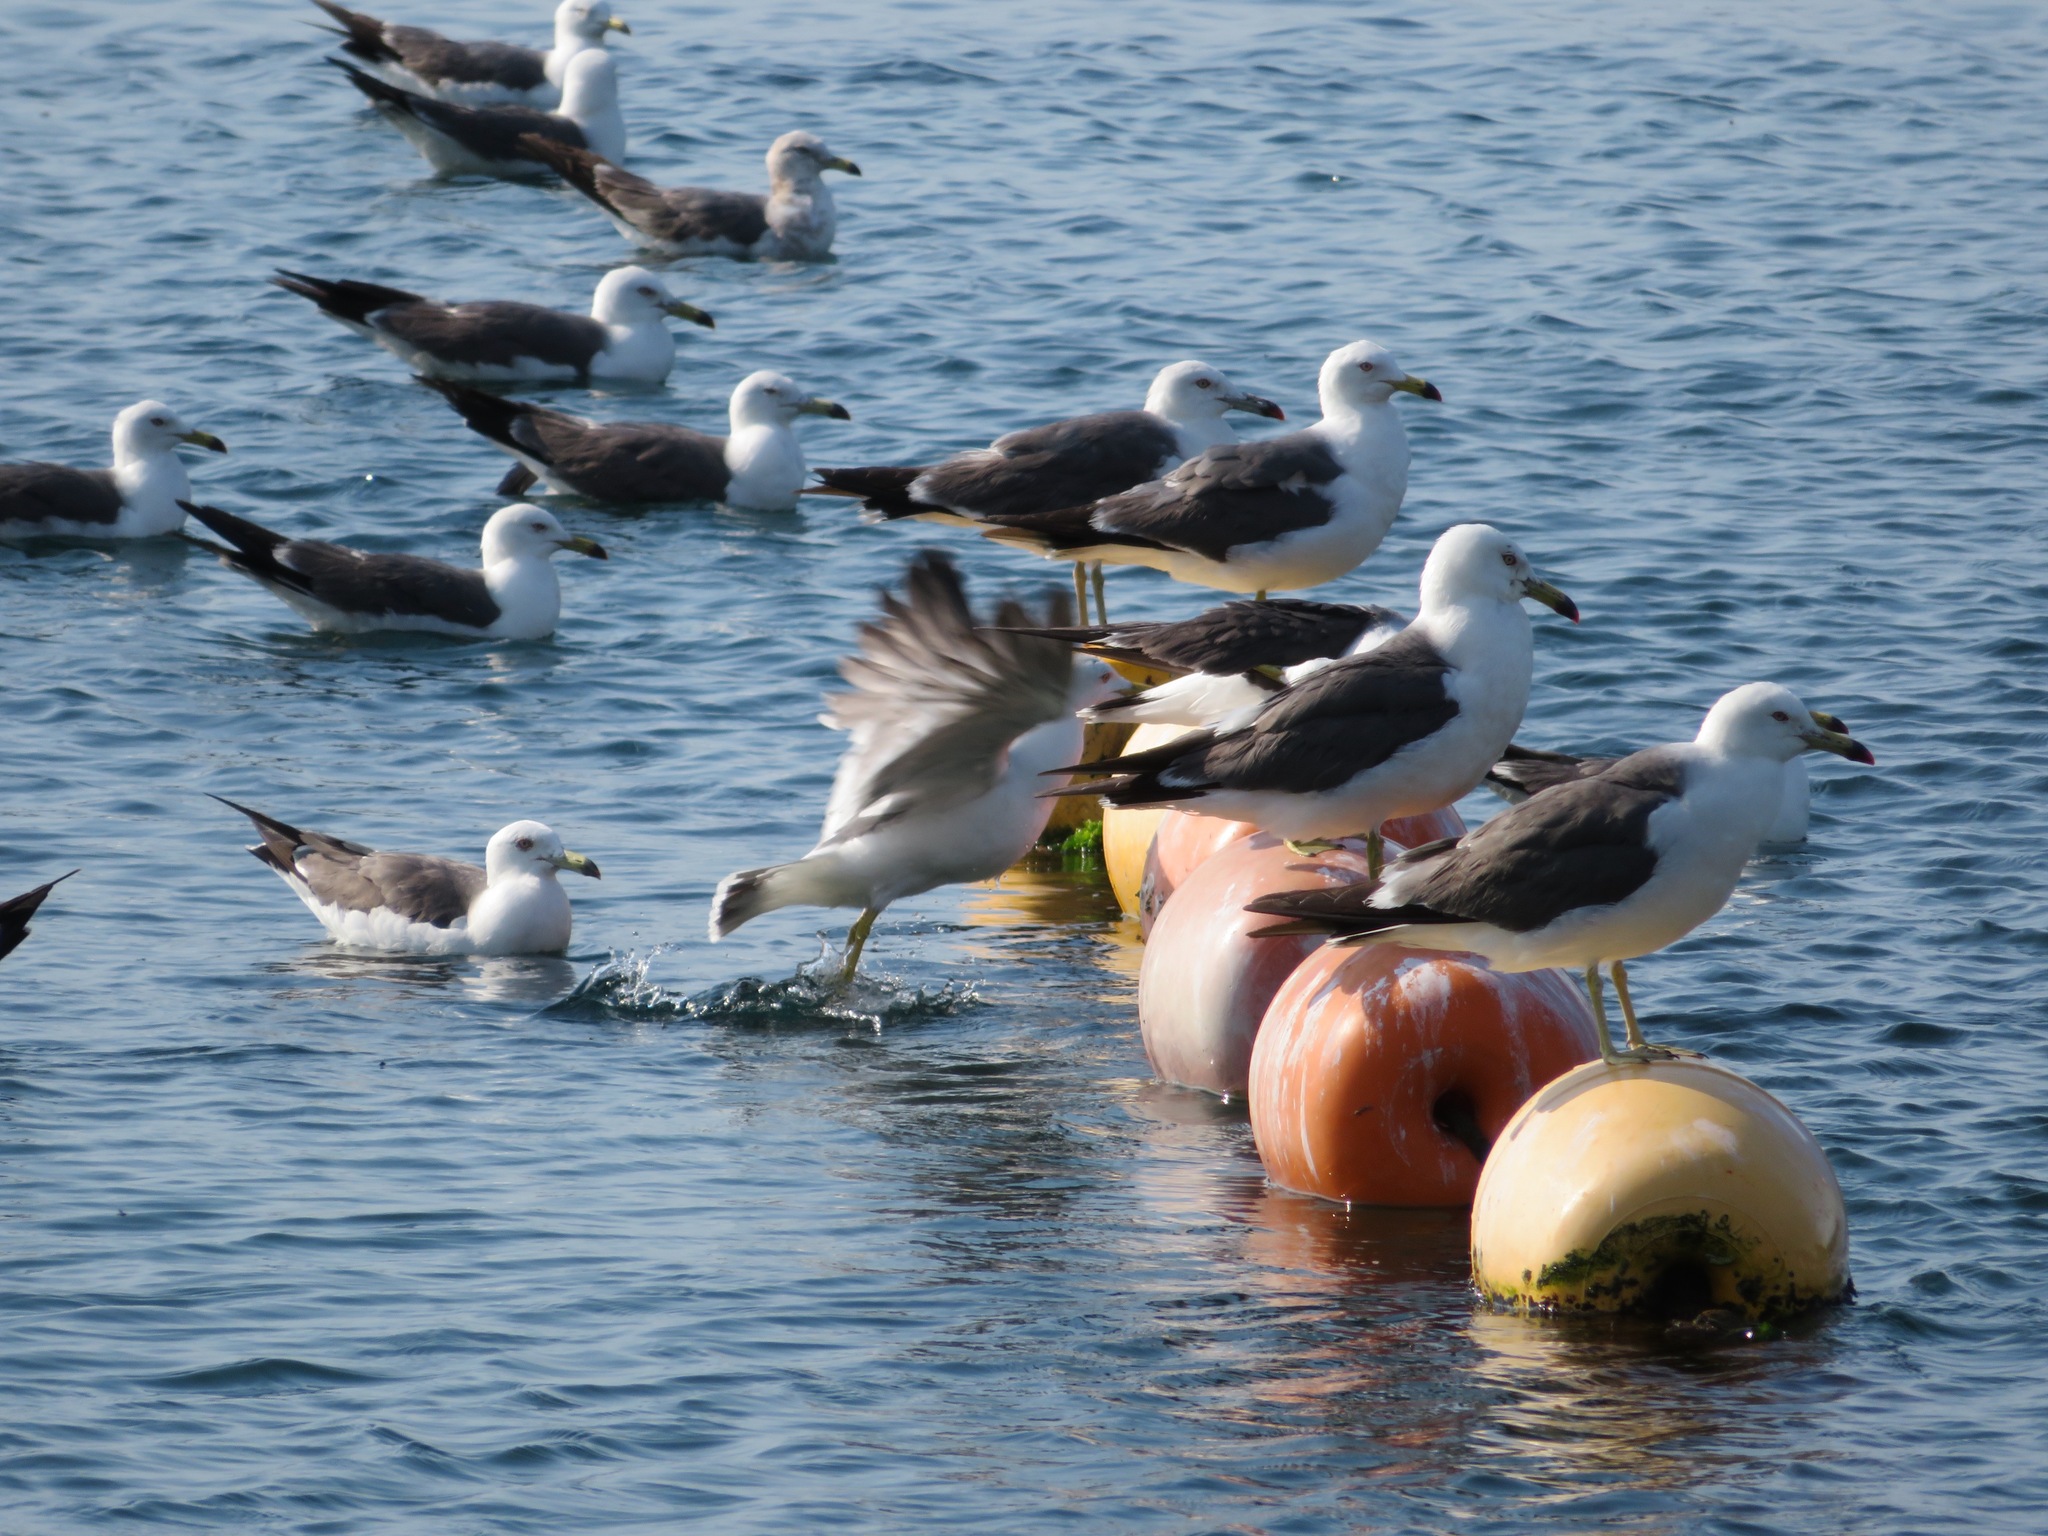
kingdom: Animalia
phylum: Chordata
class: Aves
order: Charadriiformes
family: Laridae
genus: Larus
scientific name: Larus crassirostris
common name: Black-tailed gull
